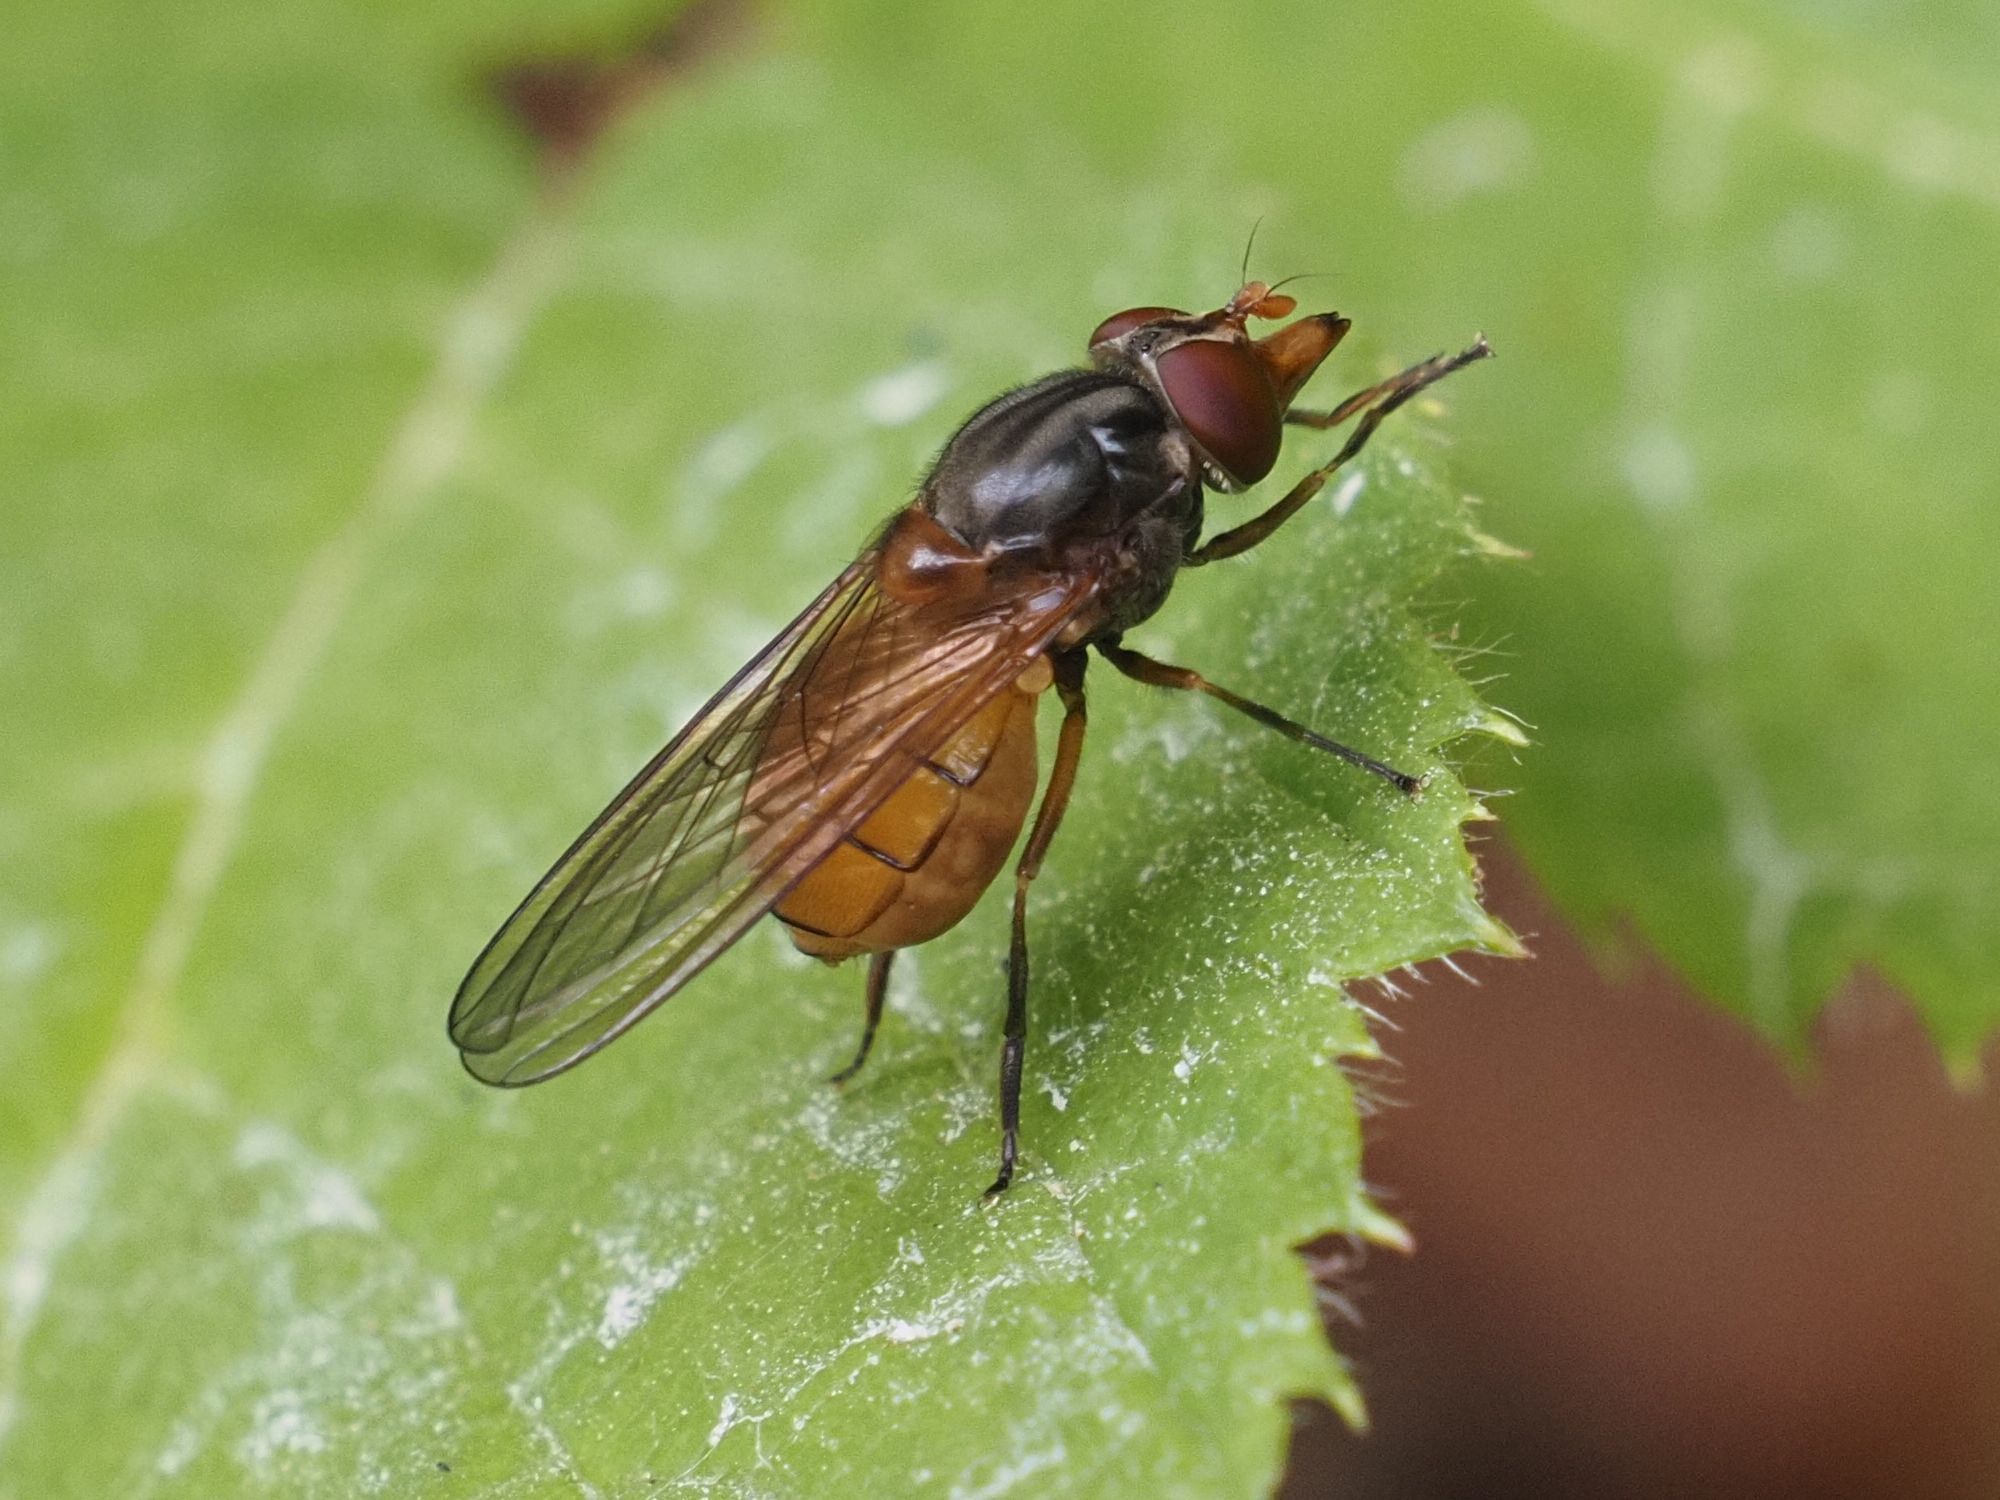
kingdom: Animalia
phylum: Arthropoda
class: Insecta
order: Diptera
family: Syrphidae
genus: Rhingia
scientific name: Rhingia campestris
